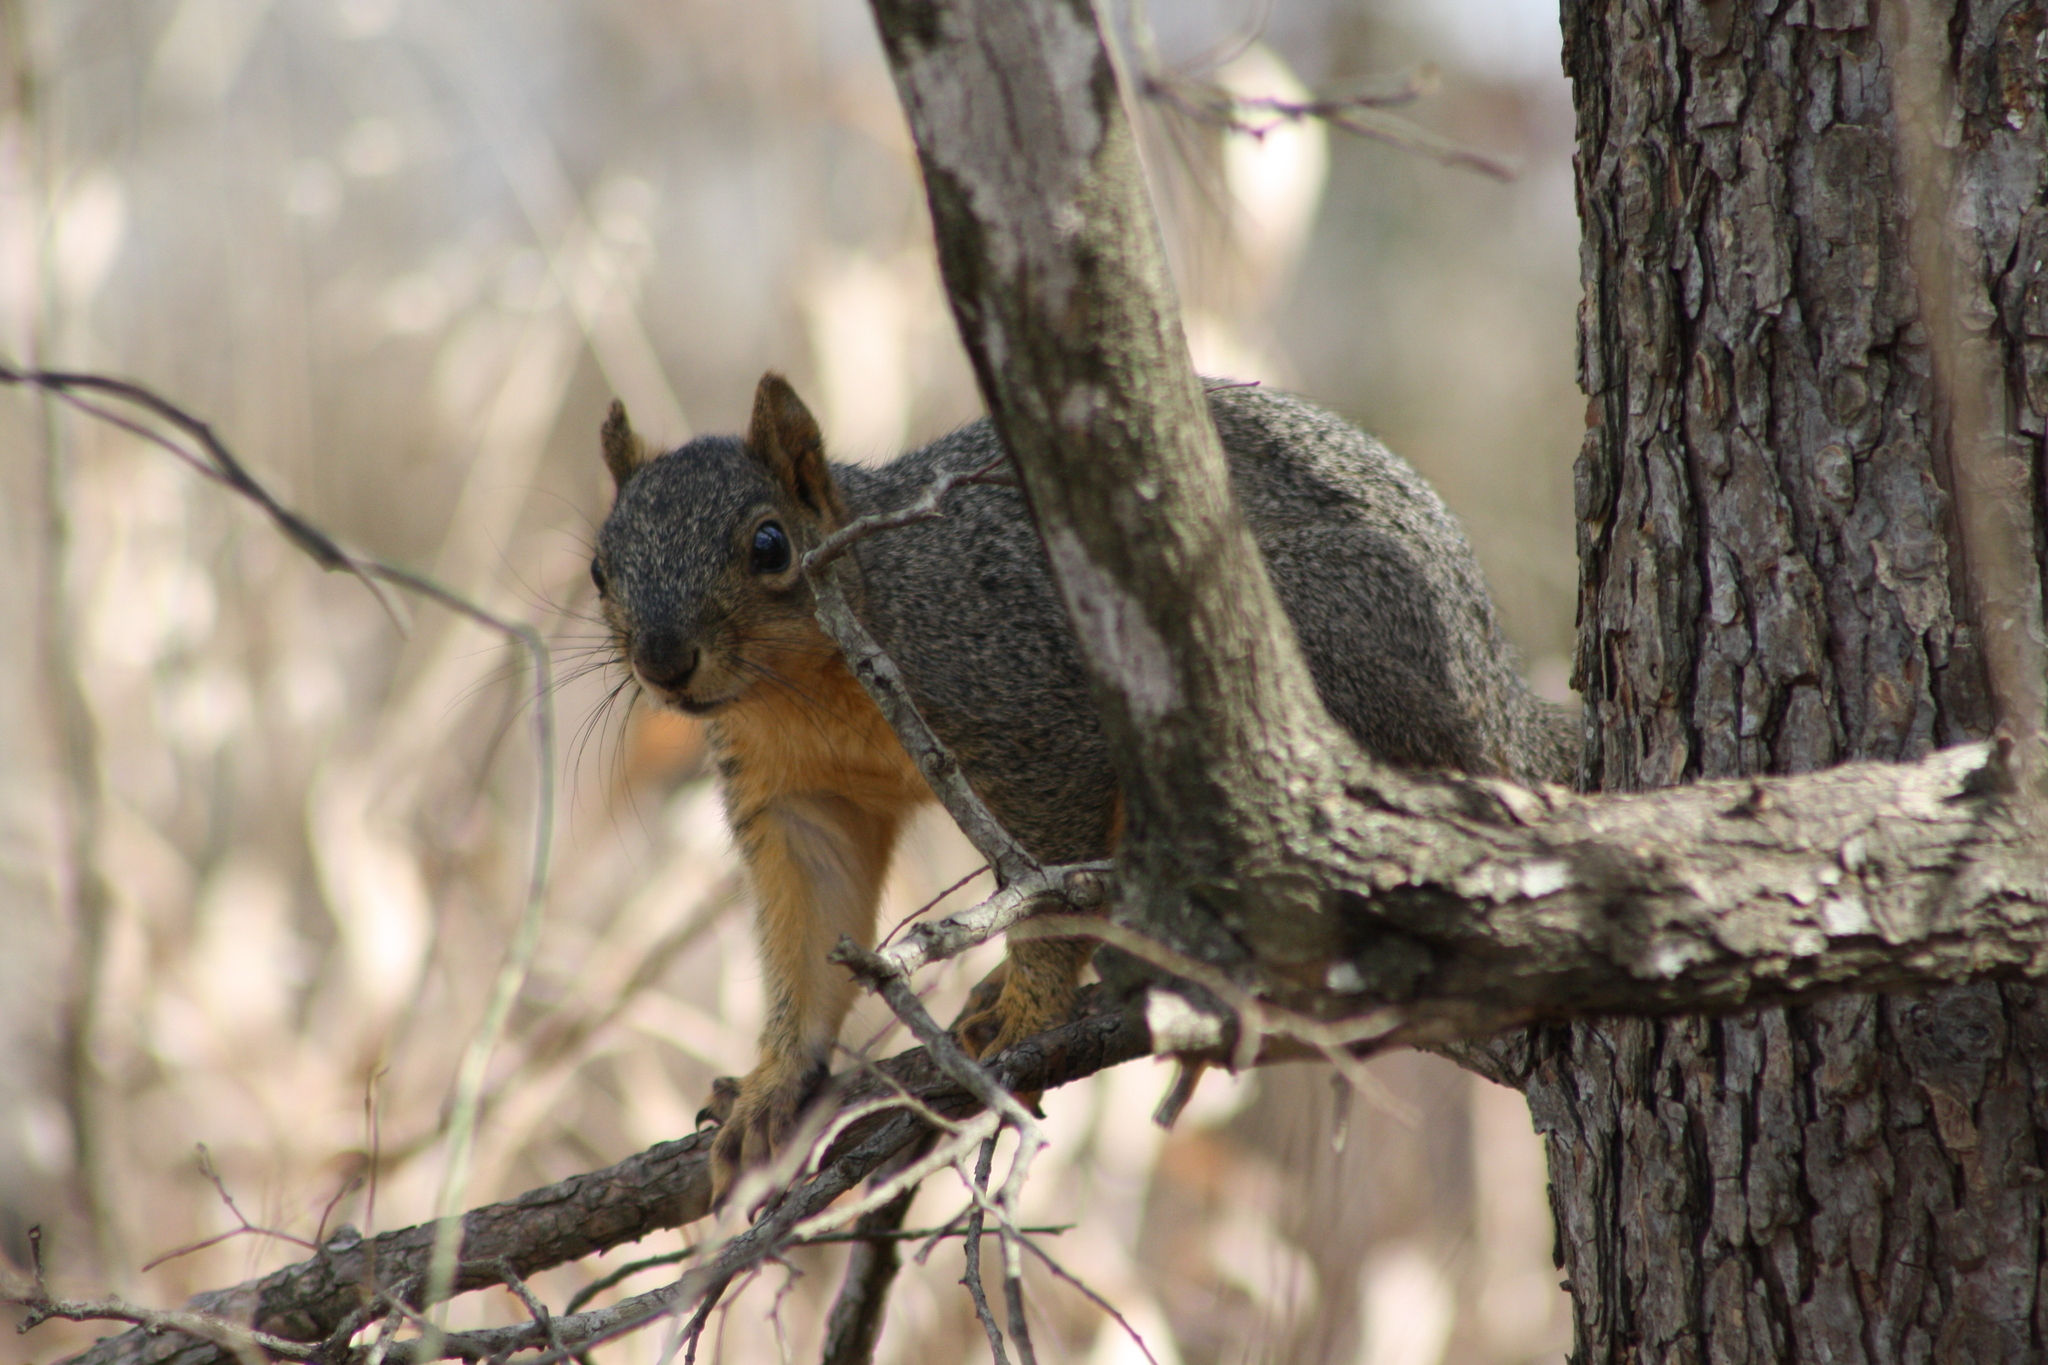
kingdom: Animalia
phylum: Chordata
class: Mammalia
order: Rodentia
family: Sciuridae
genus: Sciurus
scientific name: Sciurus niger
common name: Fox squirrel
